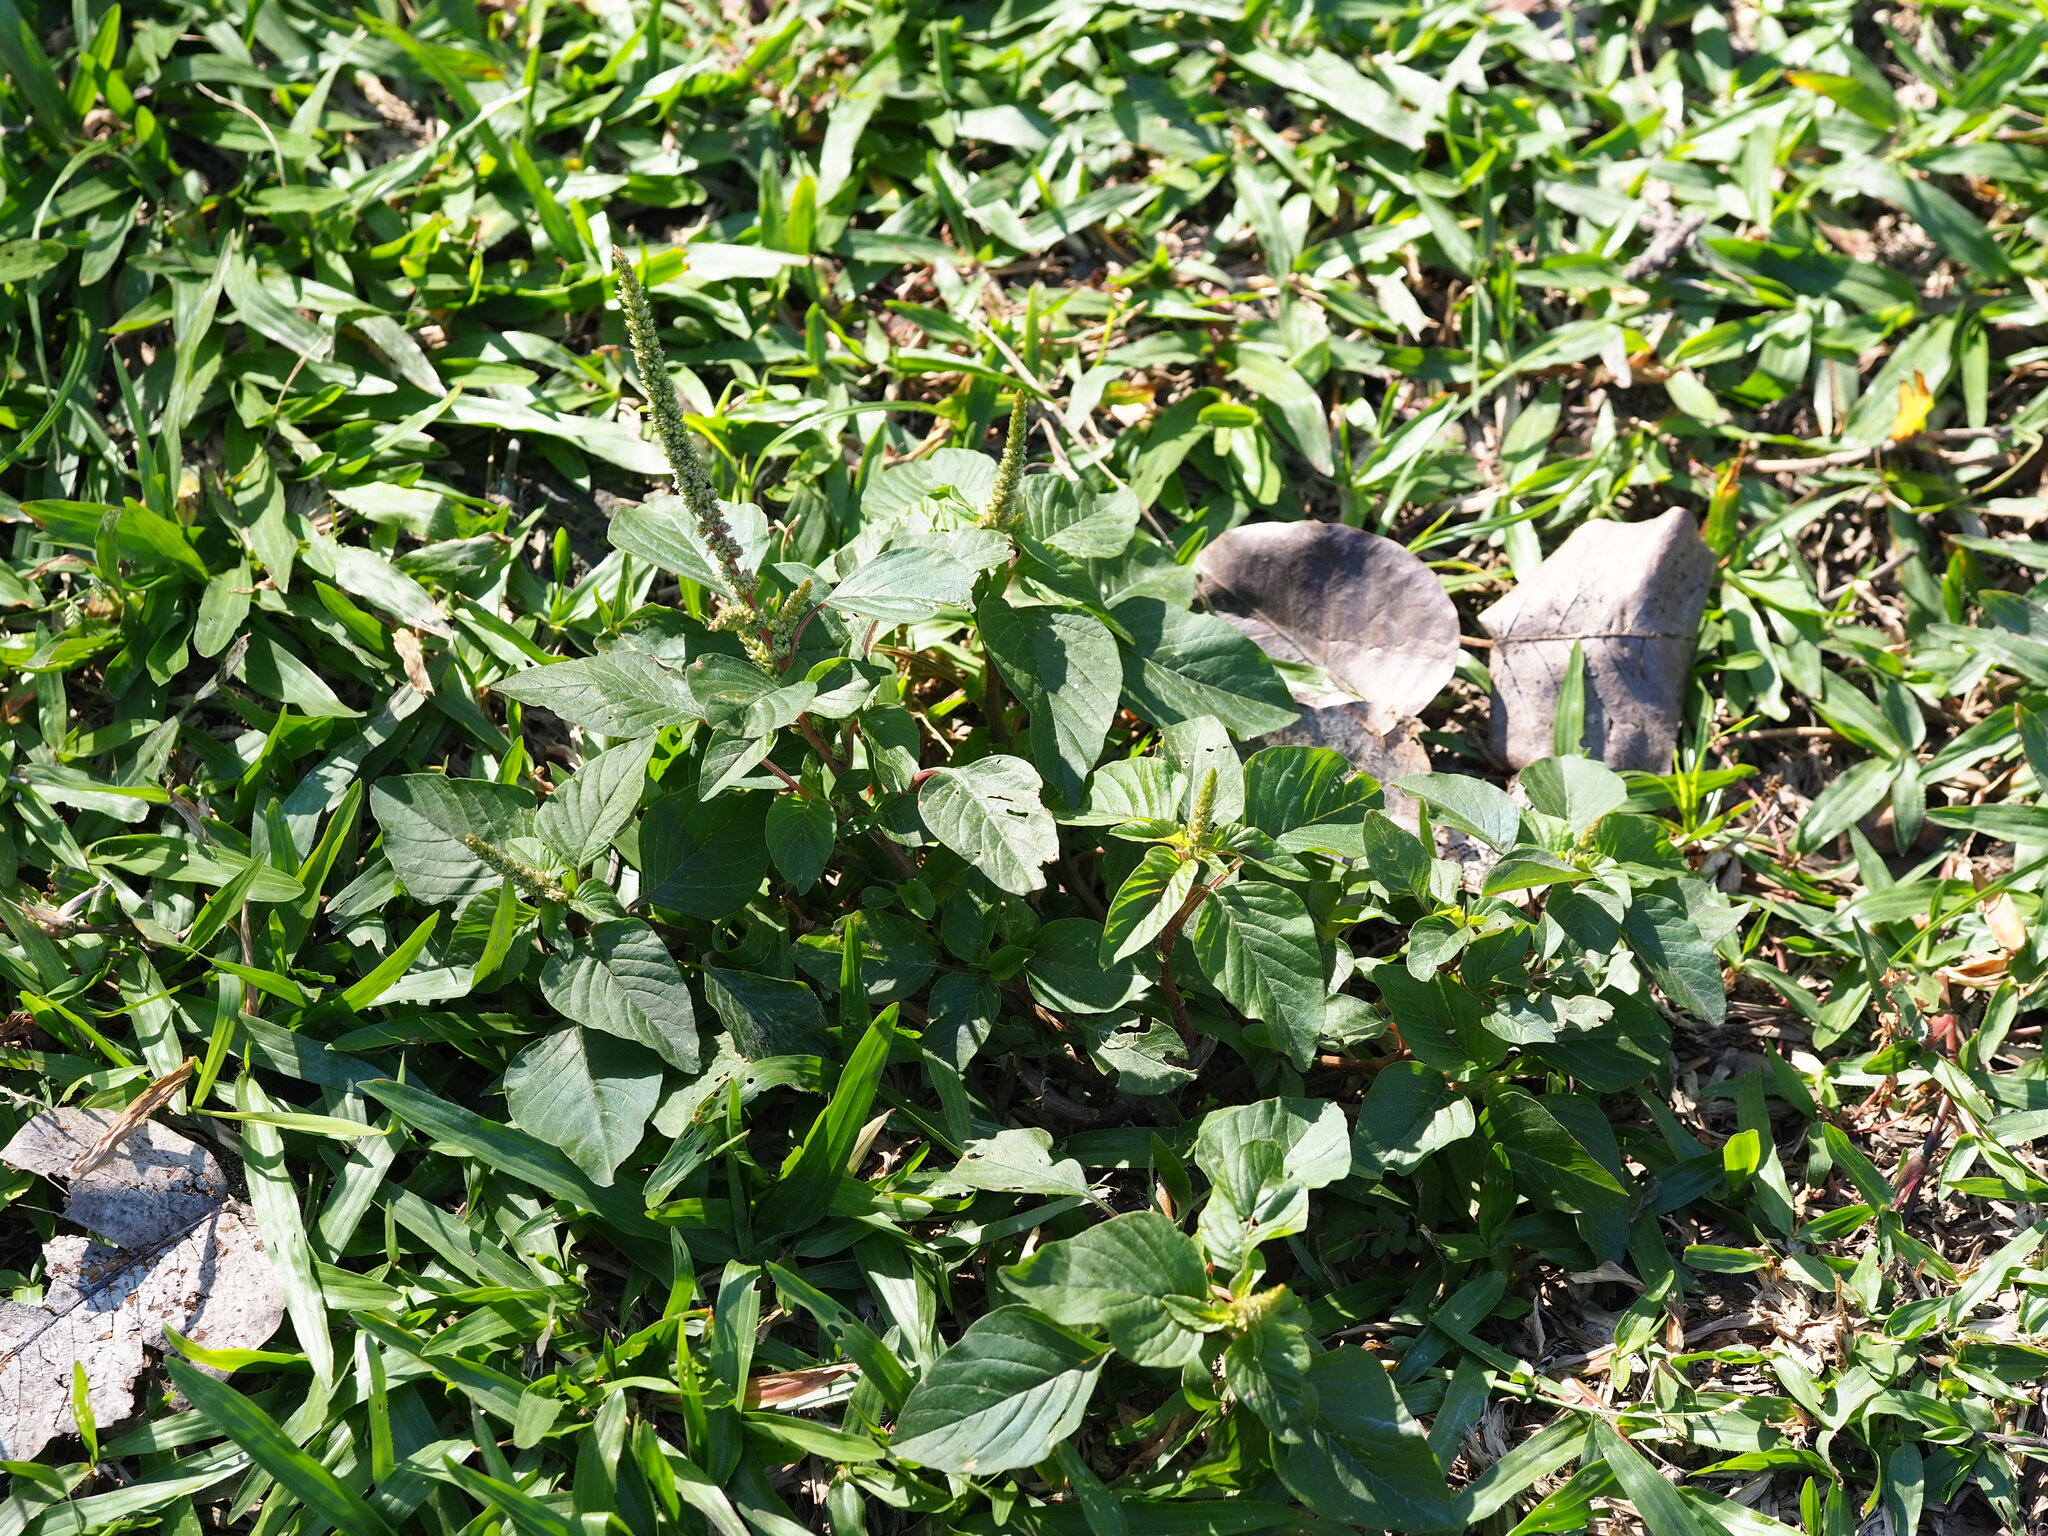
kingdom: Plantae
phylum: Tracheophyta
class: Magnoliopsida
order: Caryophyllales
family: Amaranthaceae
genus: Amaranthus
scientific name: Amaranthus viridis
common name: Slender amaranth
